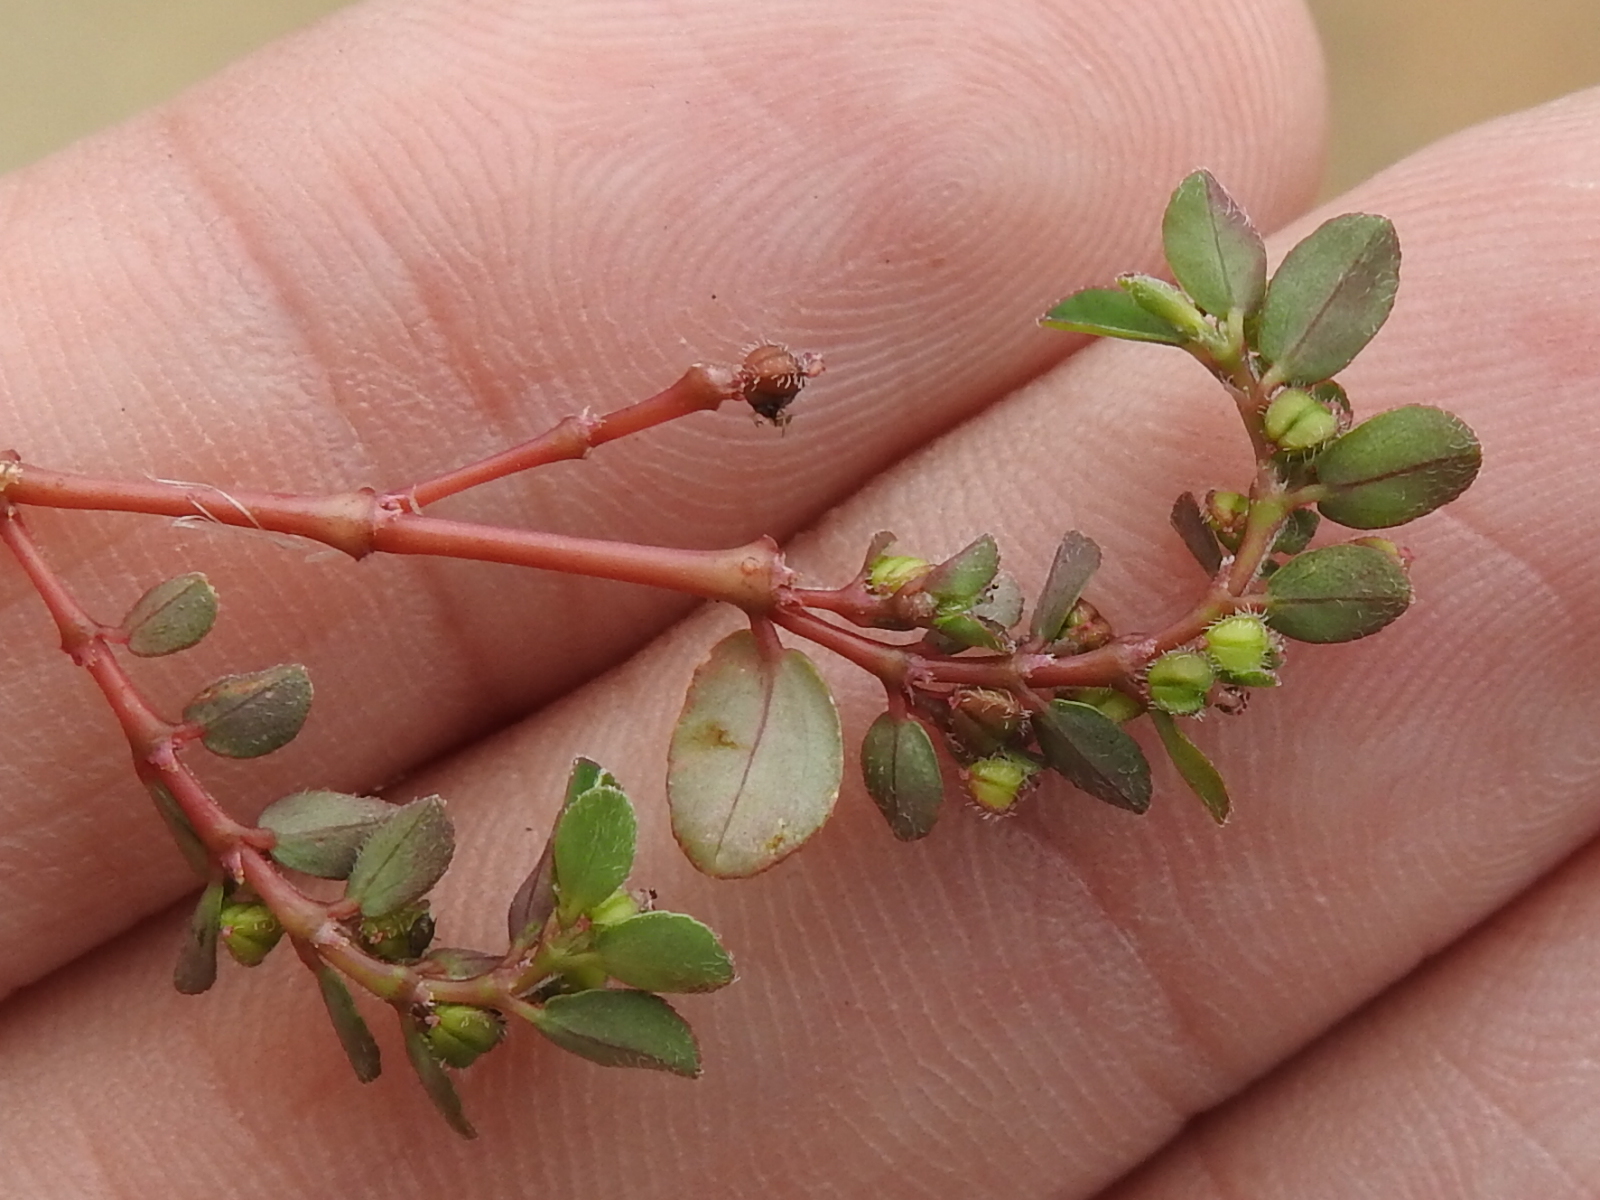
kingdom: Plantae
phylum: Tracheophyta
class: Magnoliopsida
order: Malpighiales
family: Euphorbiaceae
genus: Euphorbia
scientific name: Euphorbia prostrata
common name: Prostrate sandmat
